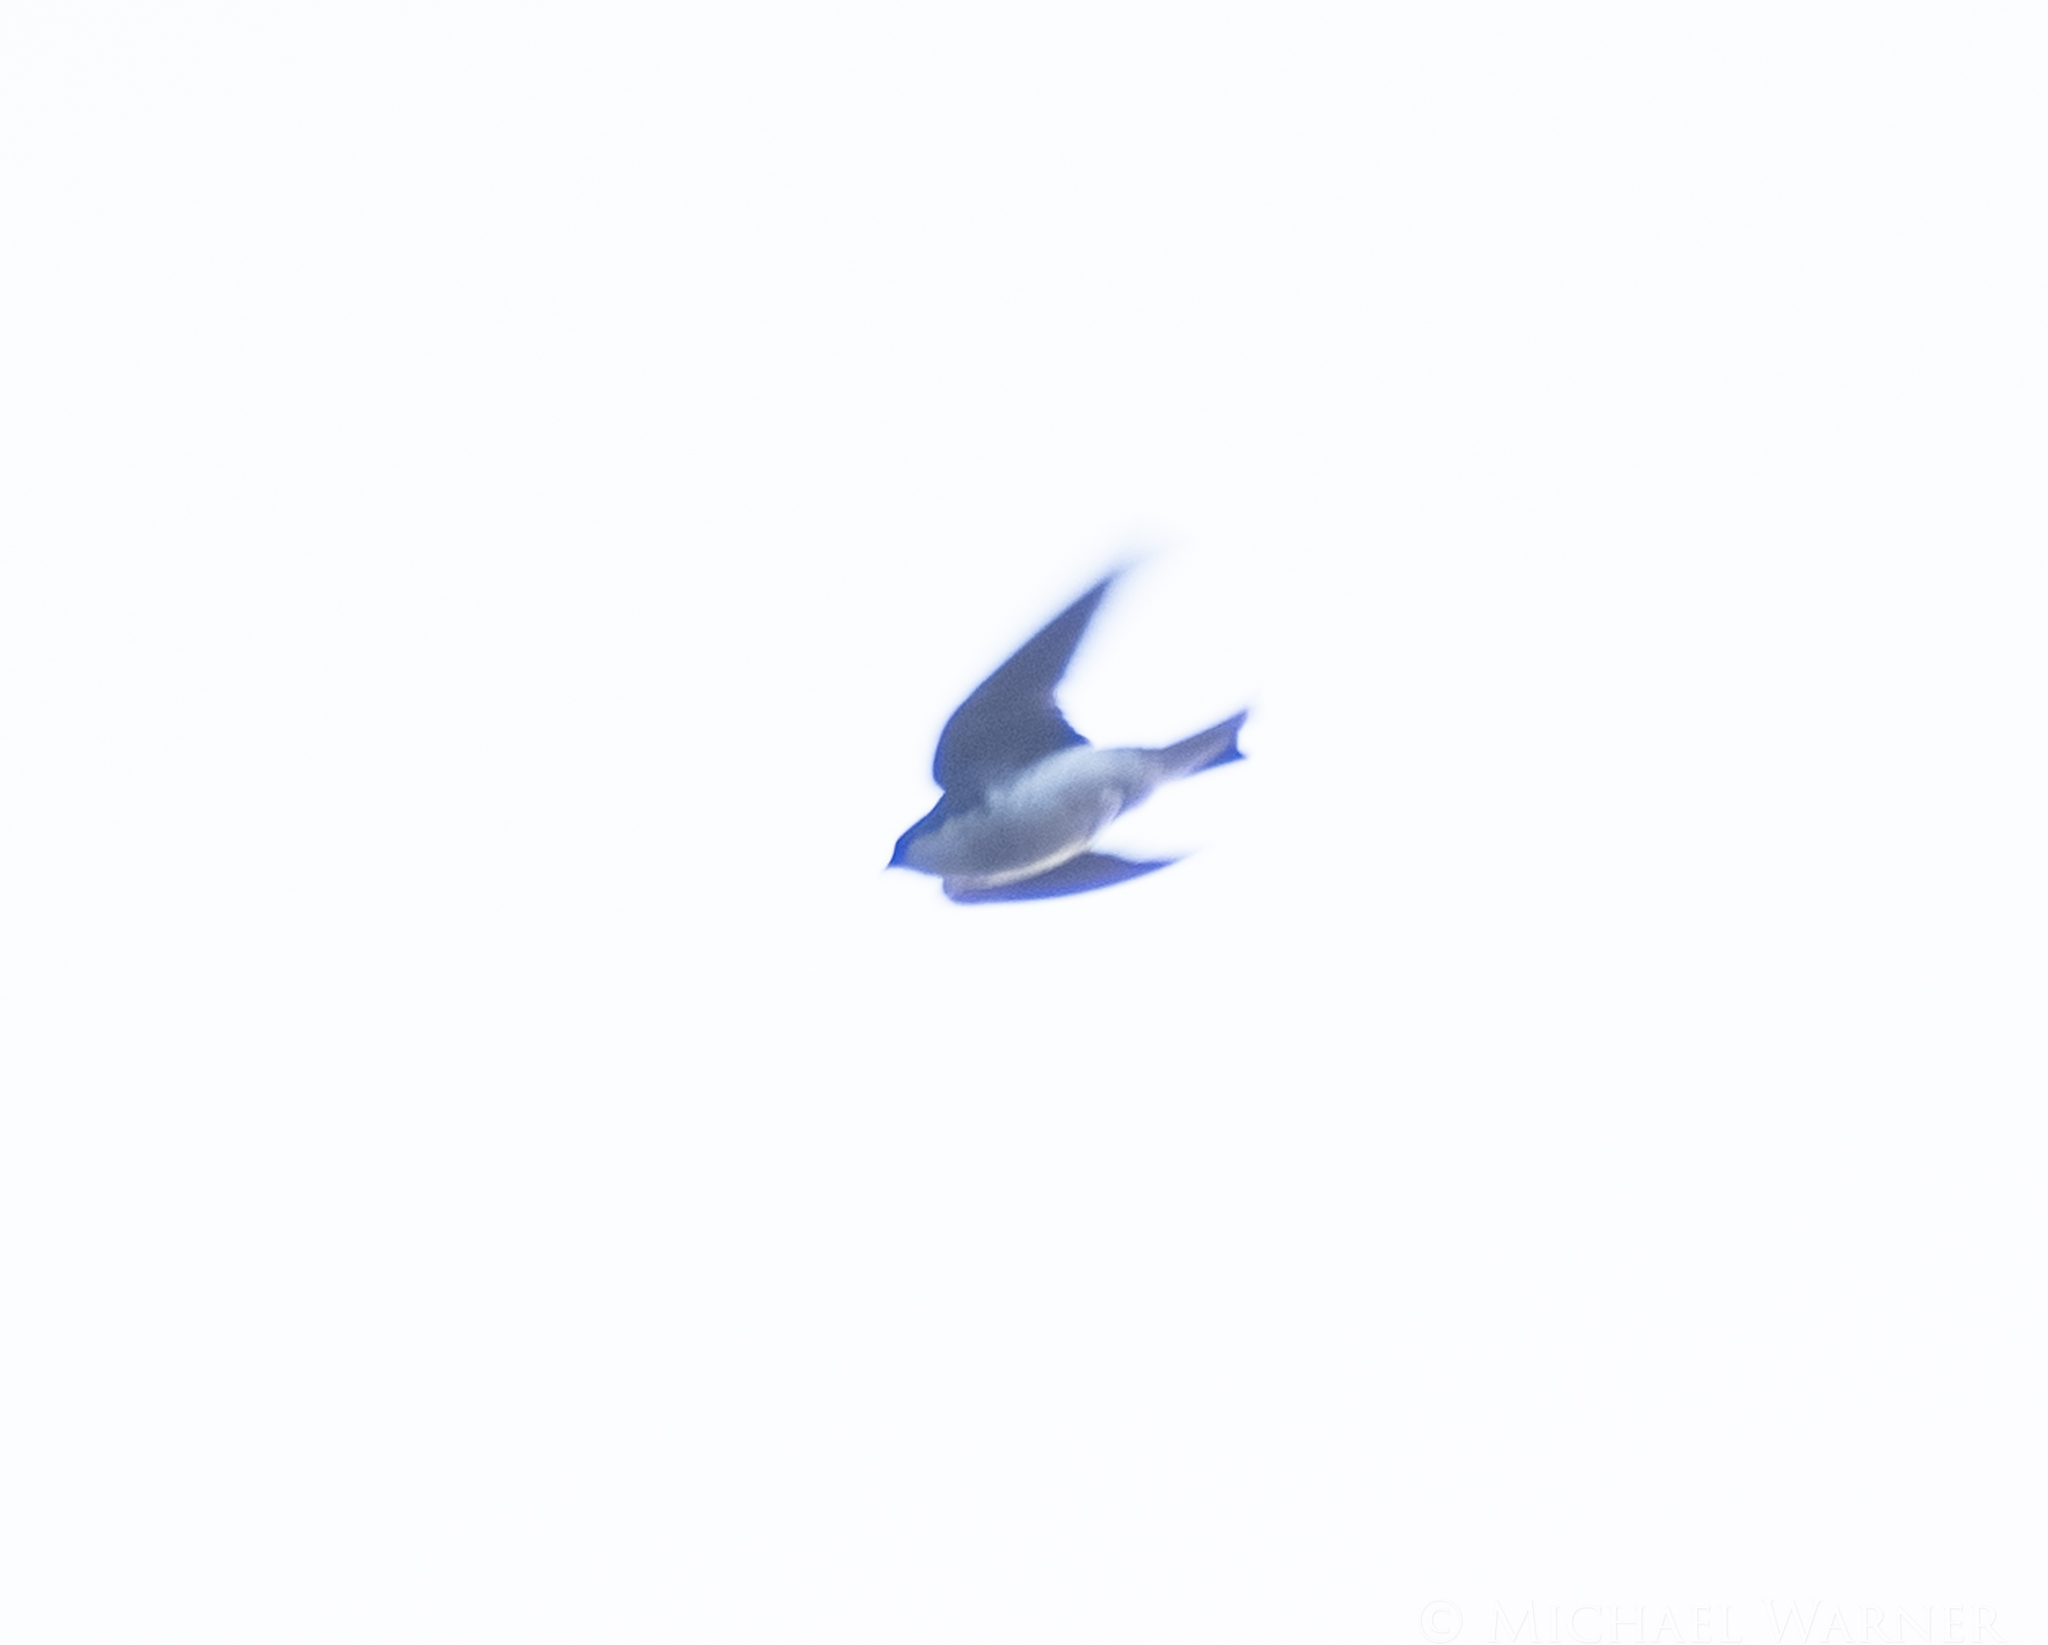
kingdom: Animalia
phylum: Chordata
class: Aves
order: Passeriformes
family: Hirundinidae
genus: Tachycineta
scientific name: Tachycineta bicolor
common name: Tree swallow
